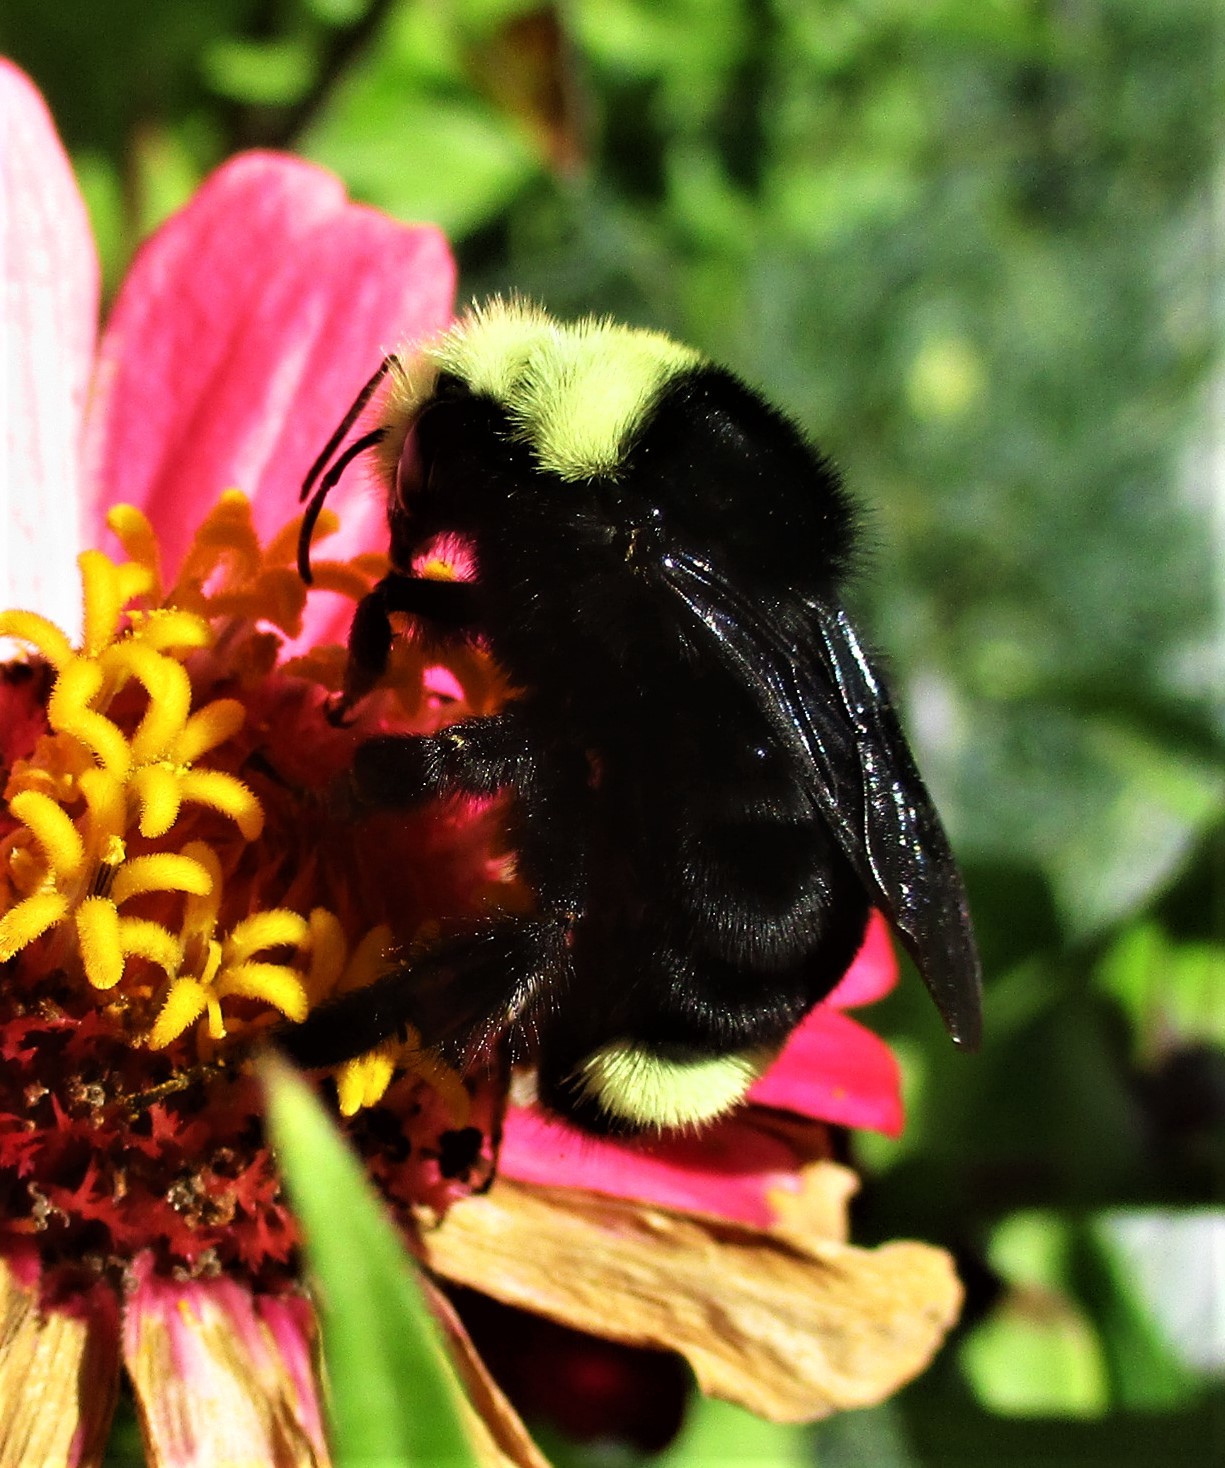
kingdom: Animalia
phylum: Arthropoda
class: Insecta
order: Hymenoptera
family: Apidae
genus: Bombus
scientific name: Bombus vosnesenskii
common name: Vosnesensky bumble bee
